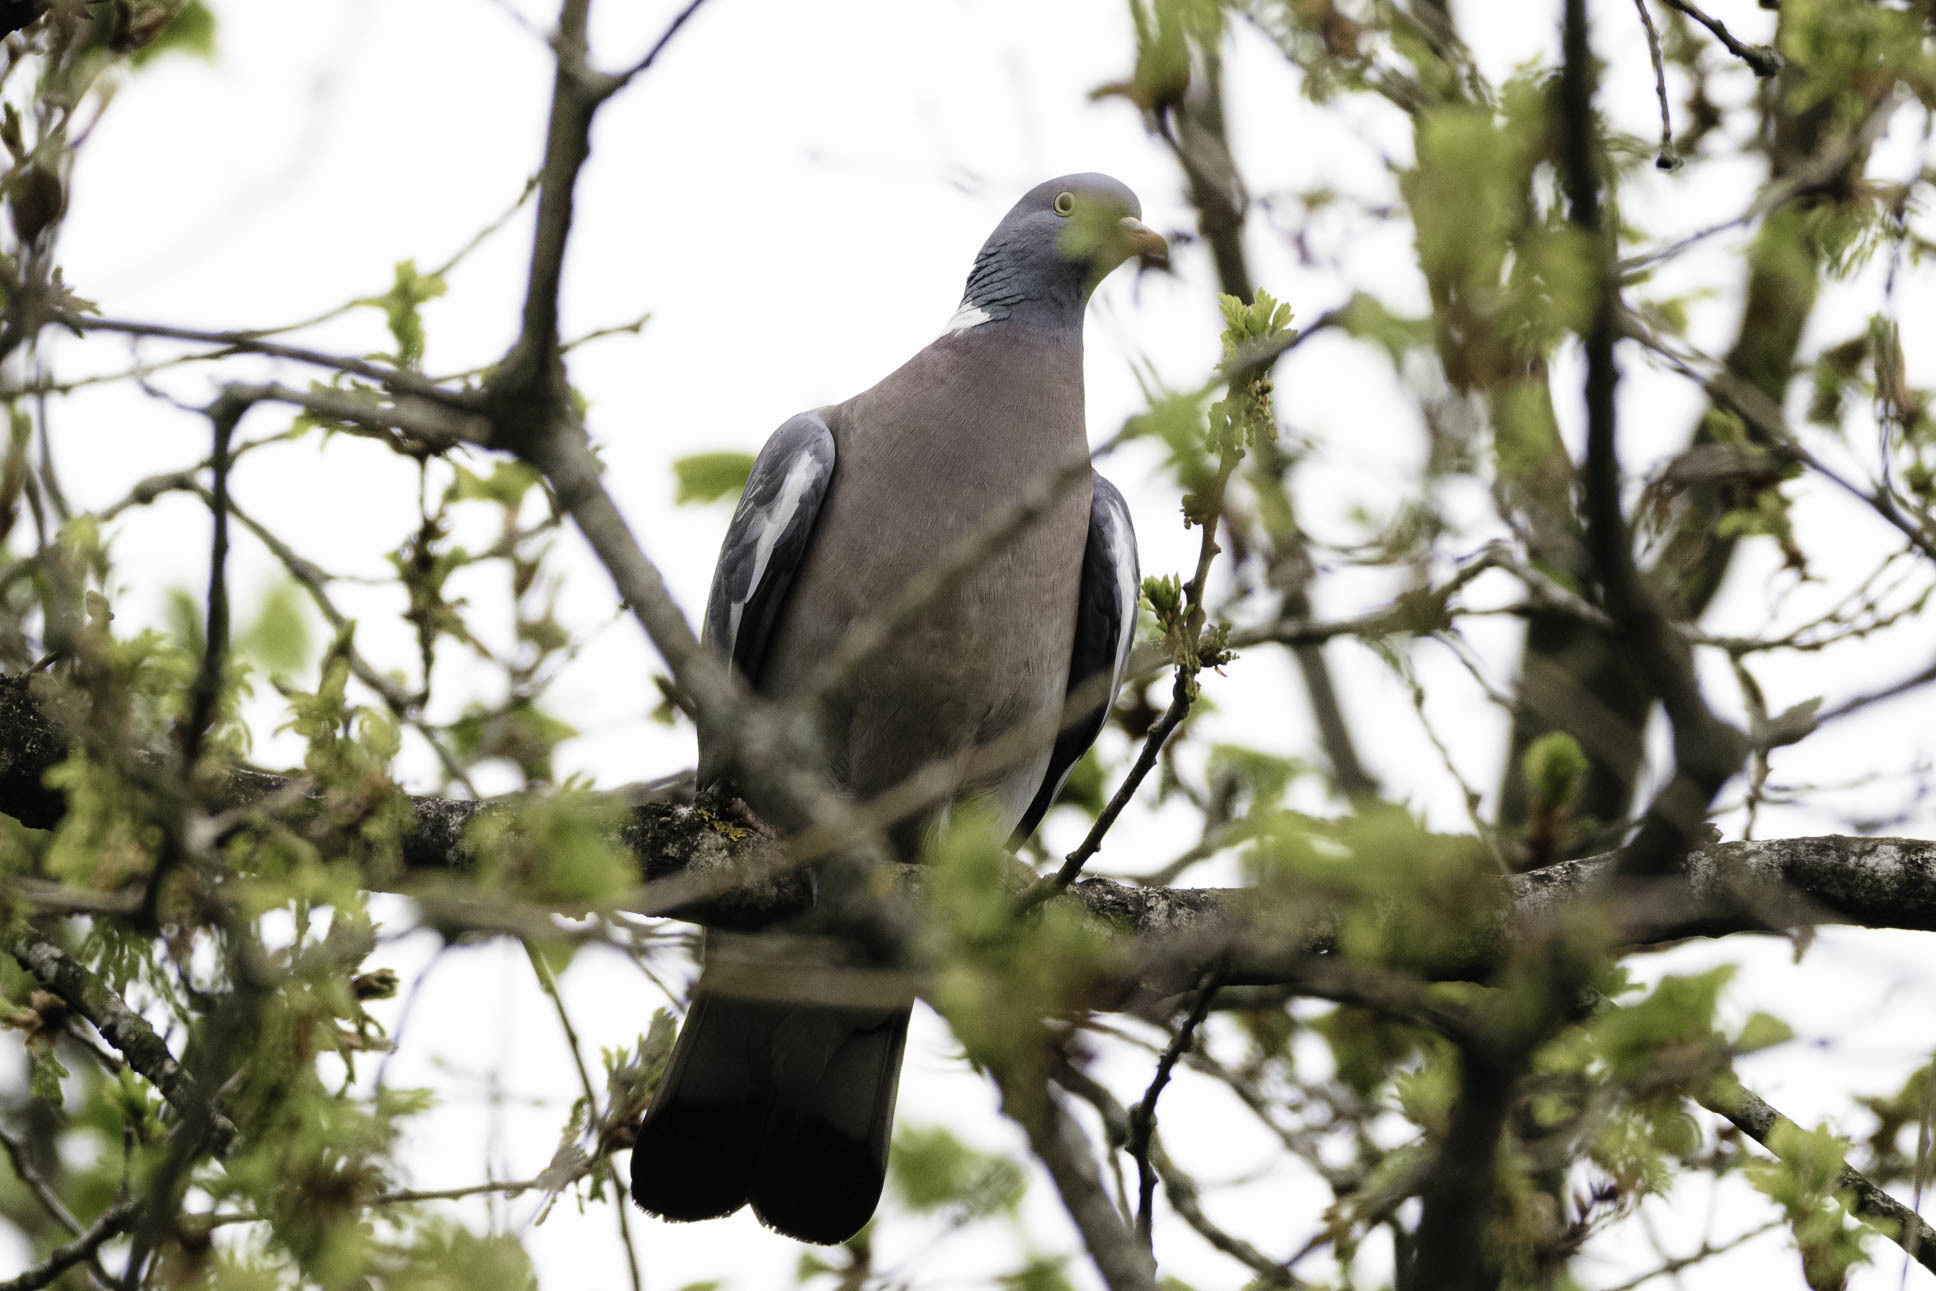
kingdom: Animalia
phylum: Chordata
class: Aves
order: Columbiformes
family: Columbidae
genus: Columba
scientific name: Columba palumbus
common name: Common wood pigeon
